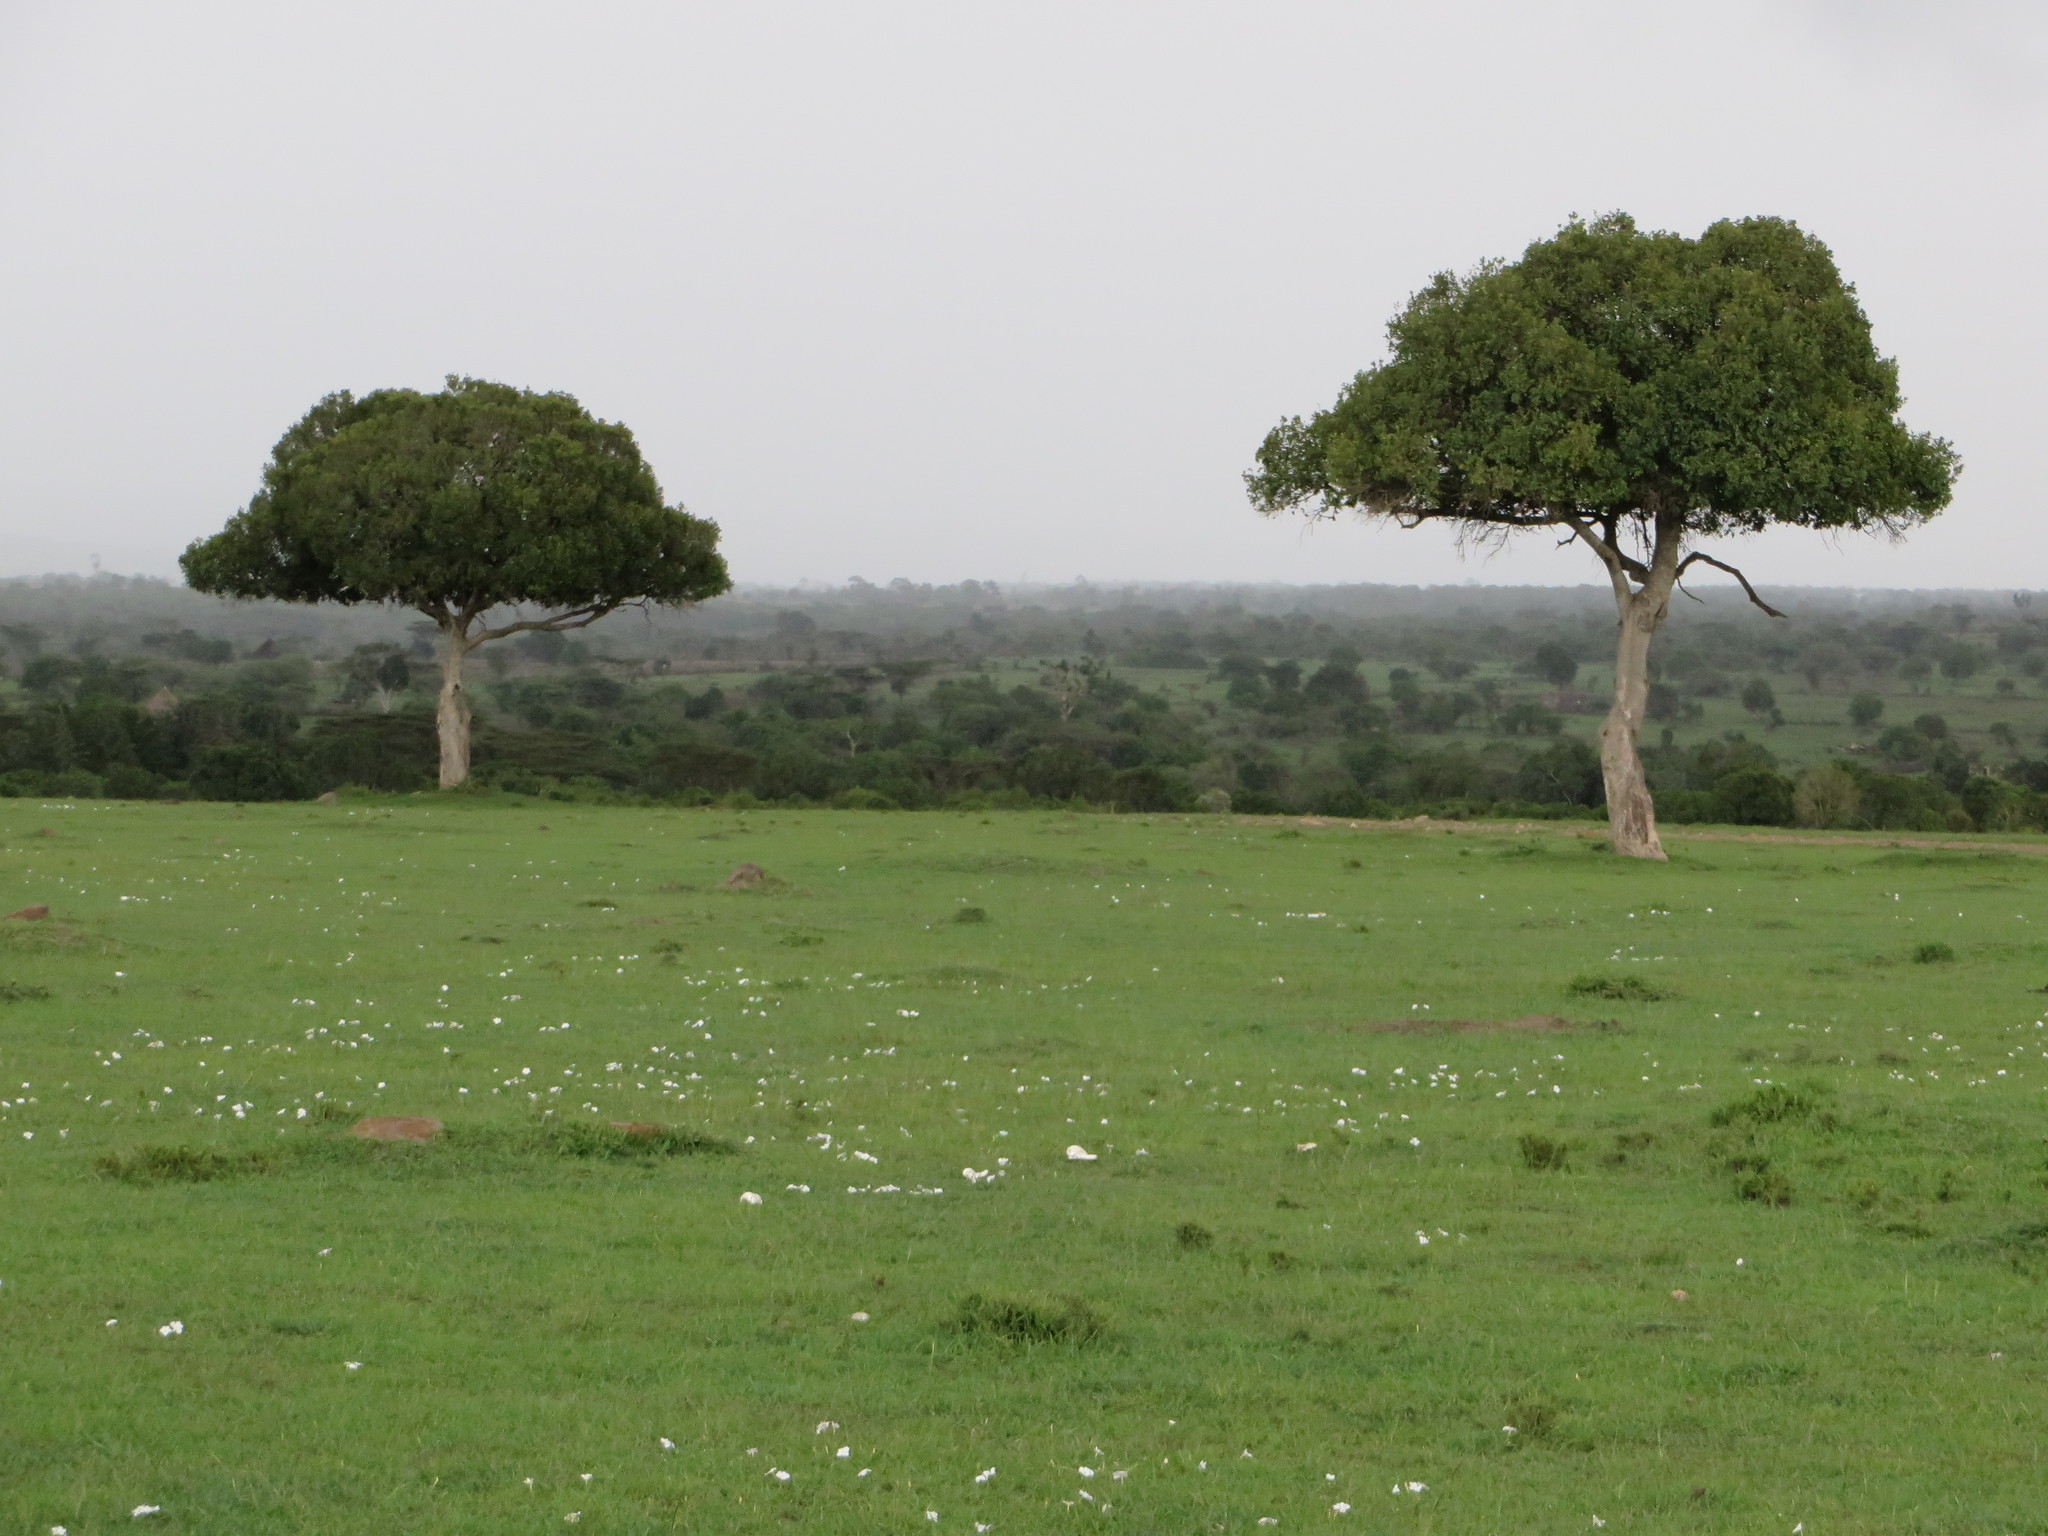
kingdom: Plantae
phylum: Tracheophyta
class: Magnoliopsida
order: Celastrales
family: Celastraceae
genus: Elaeodendron
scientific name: Elaeodendron buchananii
